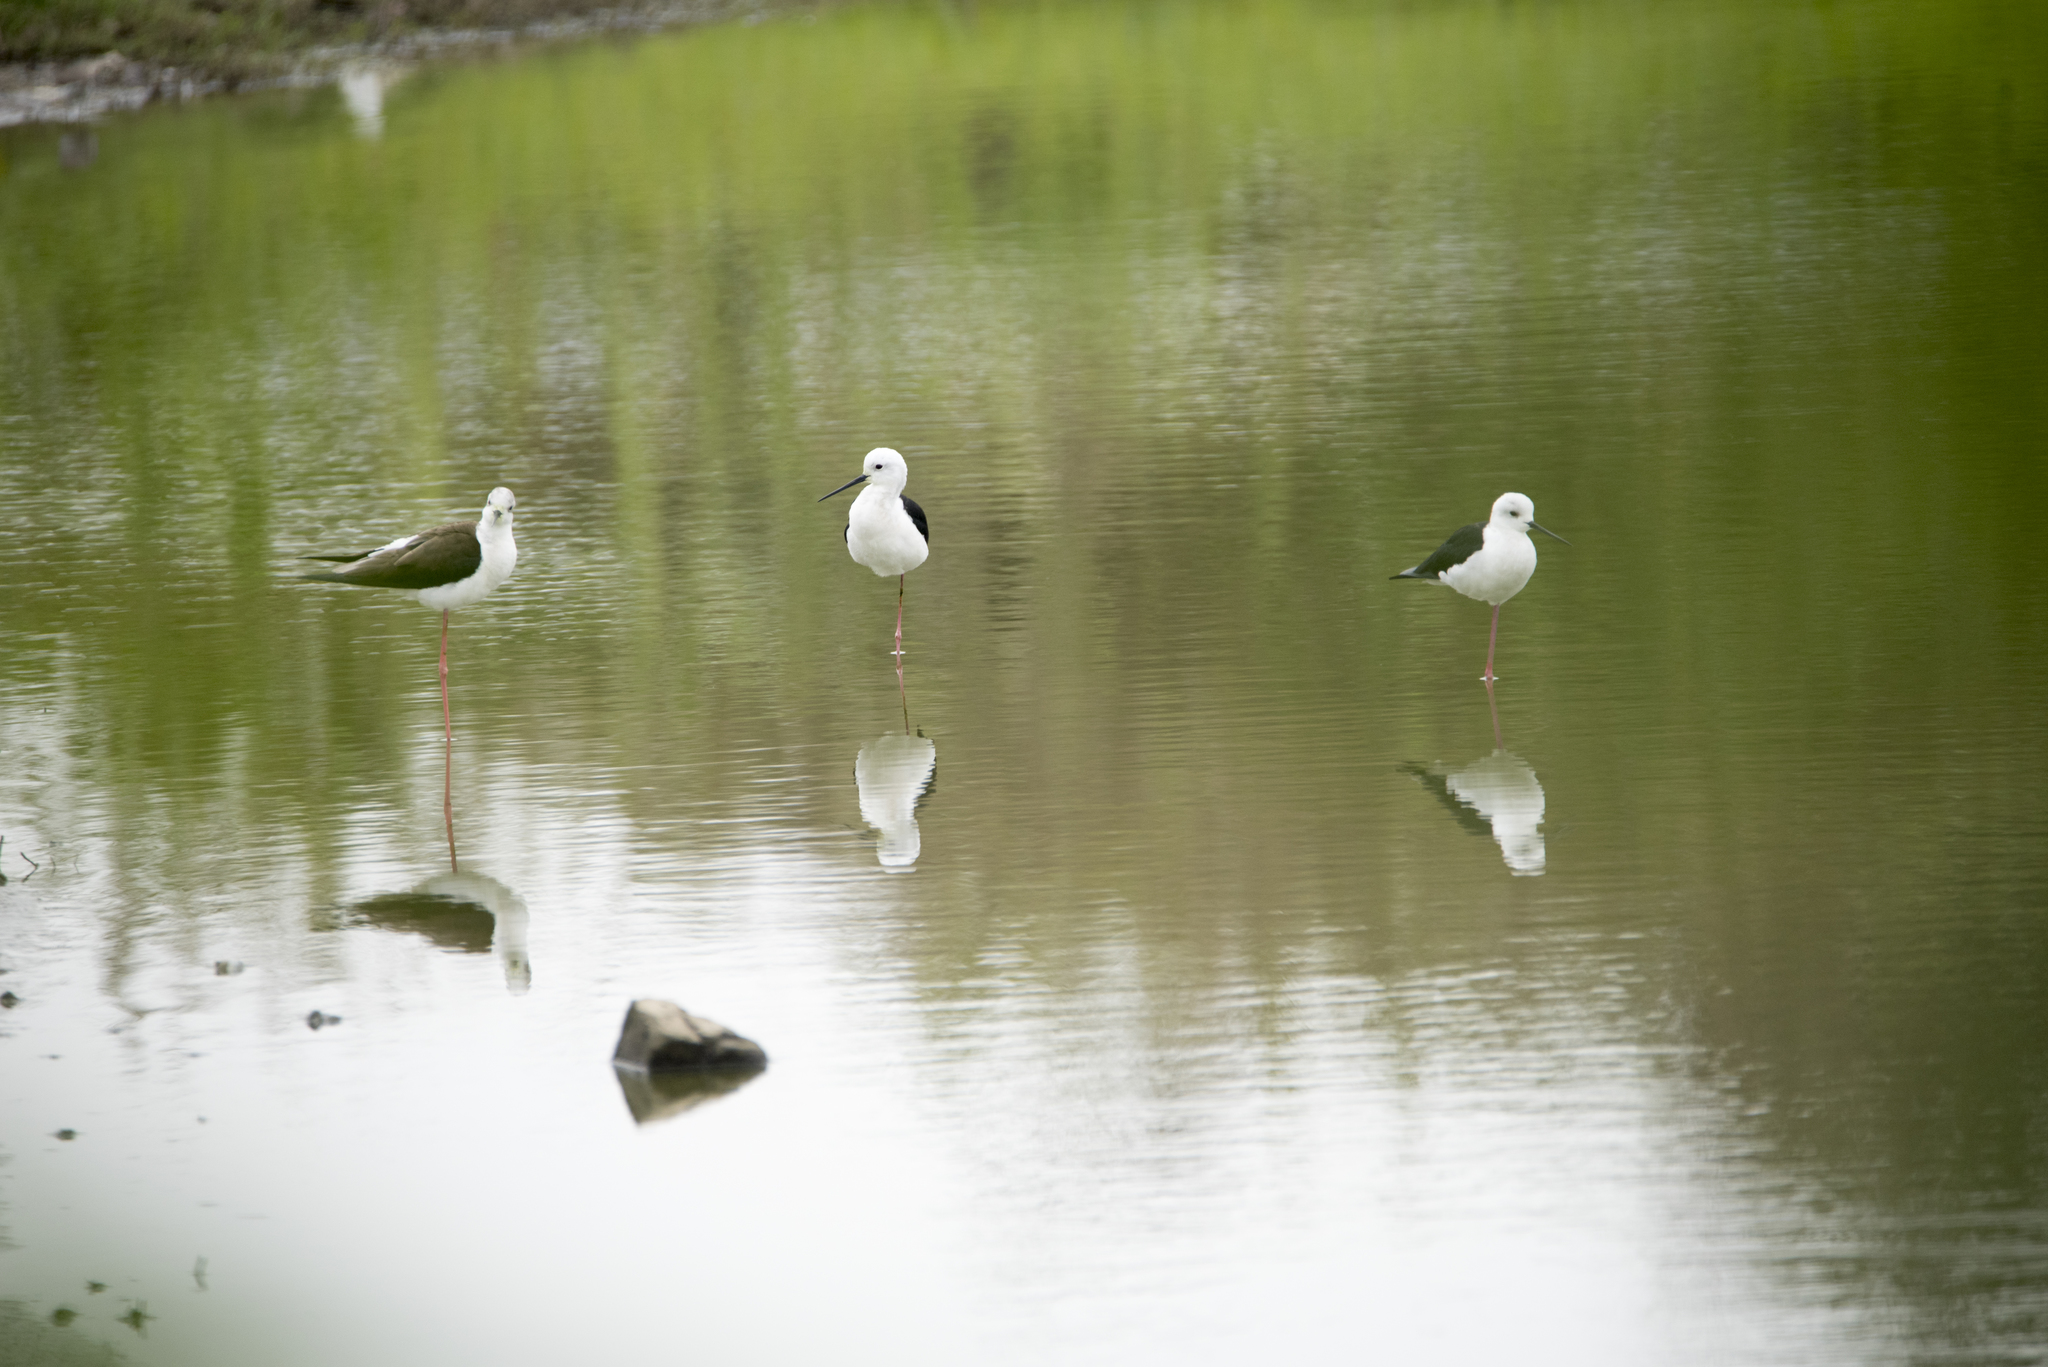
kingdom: Animalia
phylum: Chordata
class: Aves
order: Charadriiformes
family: Recurvirostridae
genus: Himantopus
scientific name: Himantopus himantopus
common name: Black-winged stilt
